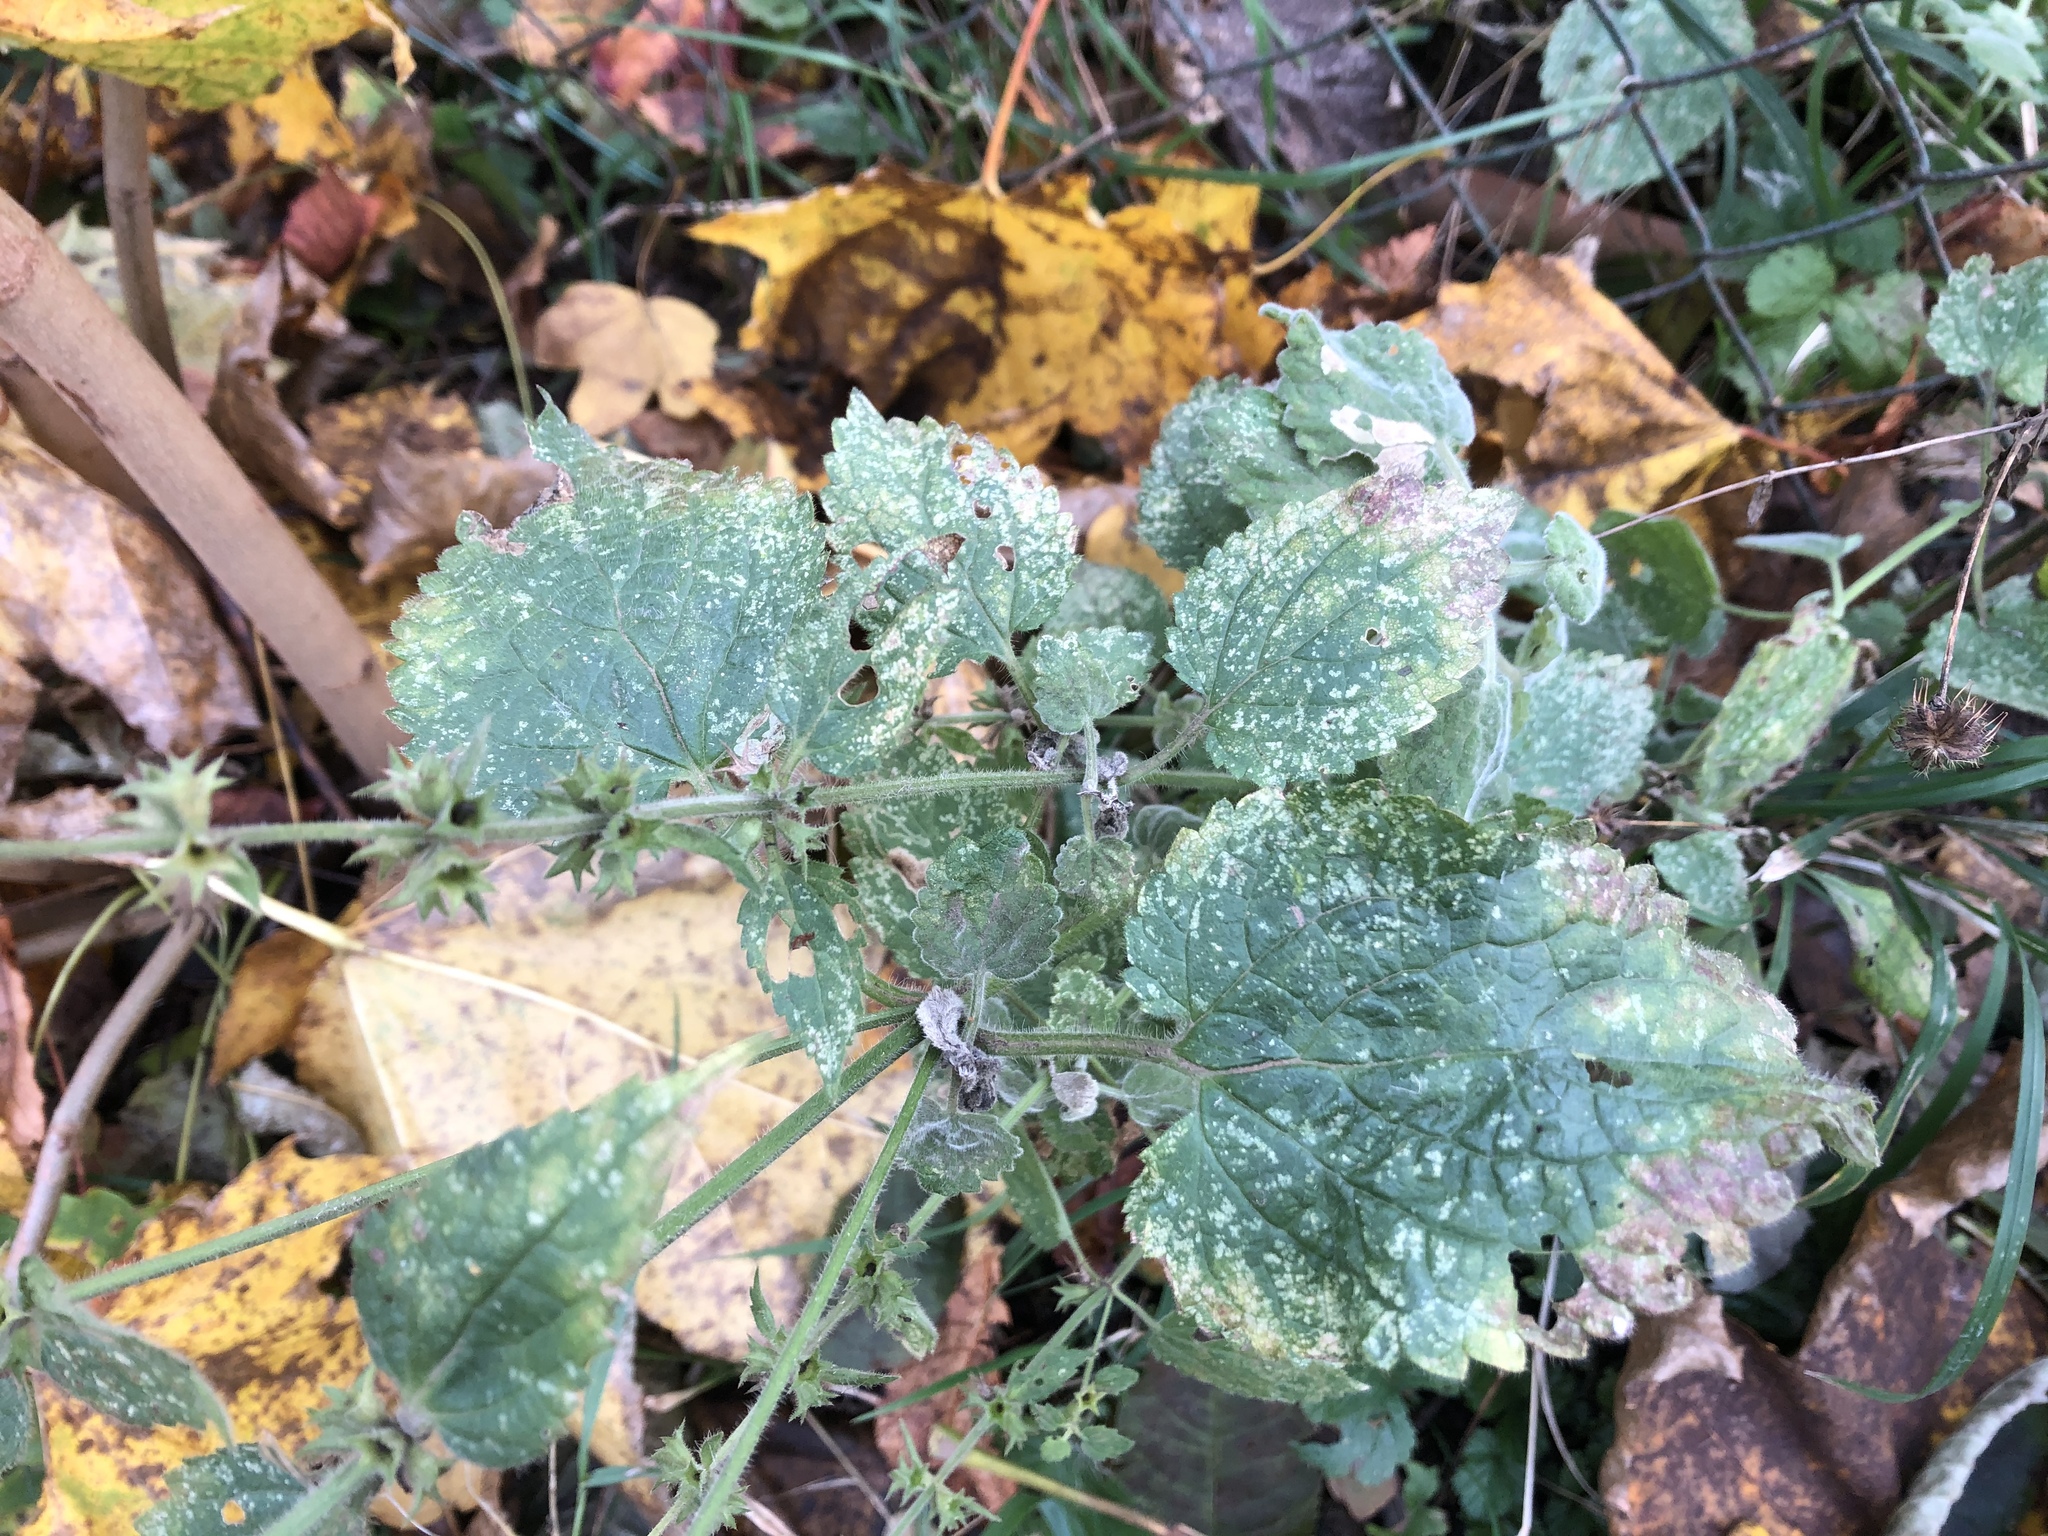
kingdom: Plantae
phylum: Tracheophyta
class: Magnoliopsida
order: Lamiales
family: Lamiaceae
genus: Stachys
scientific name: Stachys sylvatica
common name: Hedge woundwort
